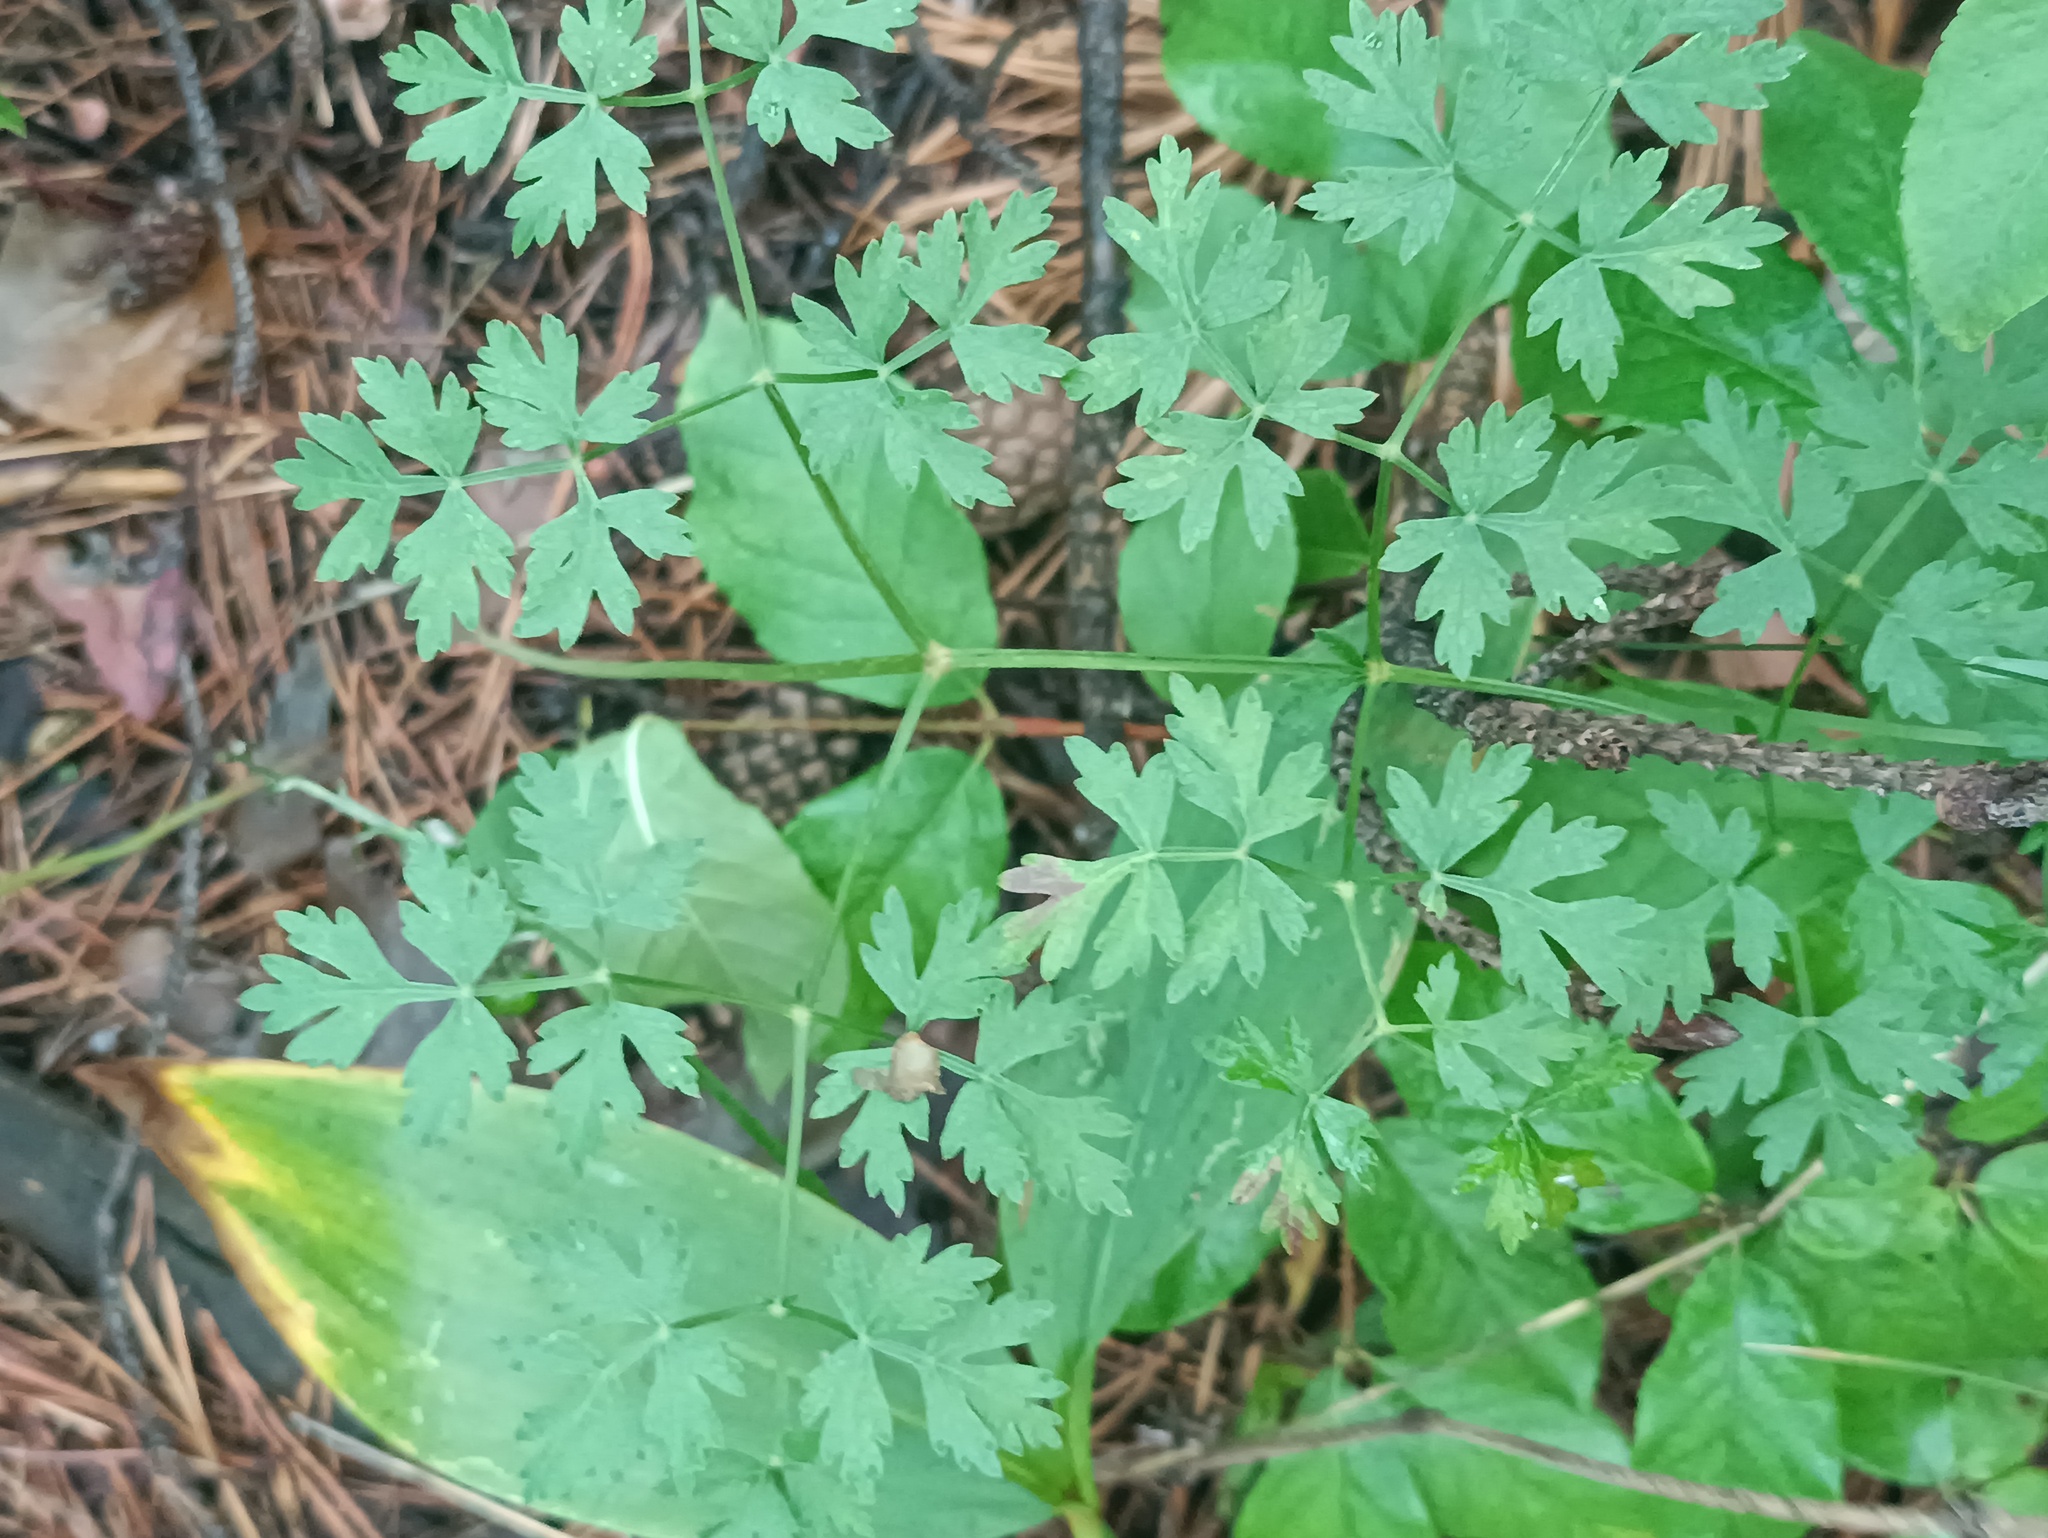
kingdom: Plantae
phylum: Tracheophyta
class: Magnoliopsida
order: Apiales
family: Apiaceae
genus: Oreoselinum
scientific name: Oreoselinum nigrum
